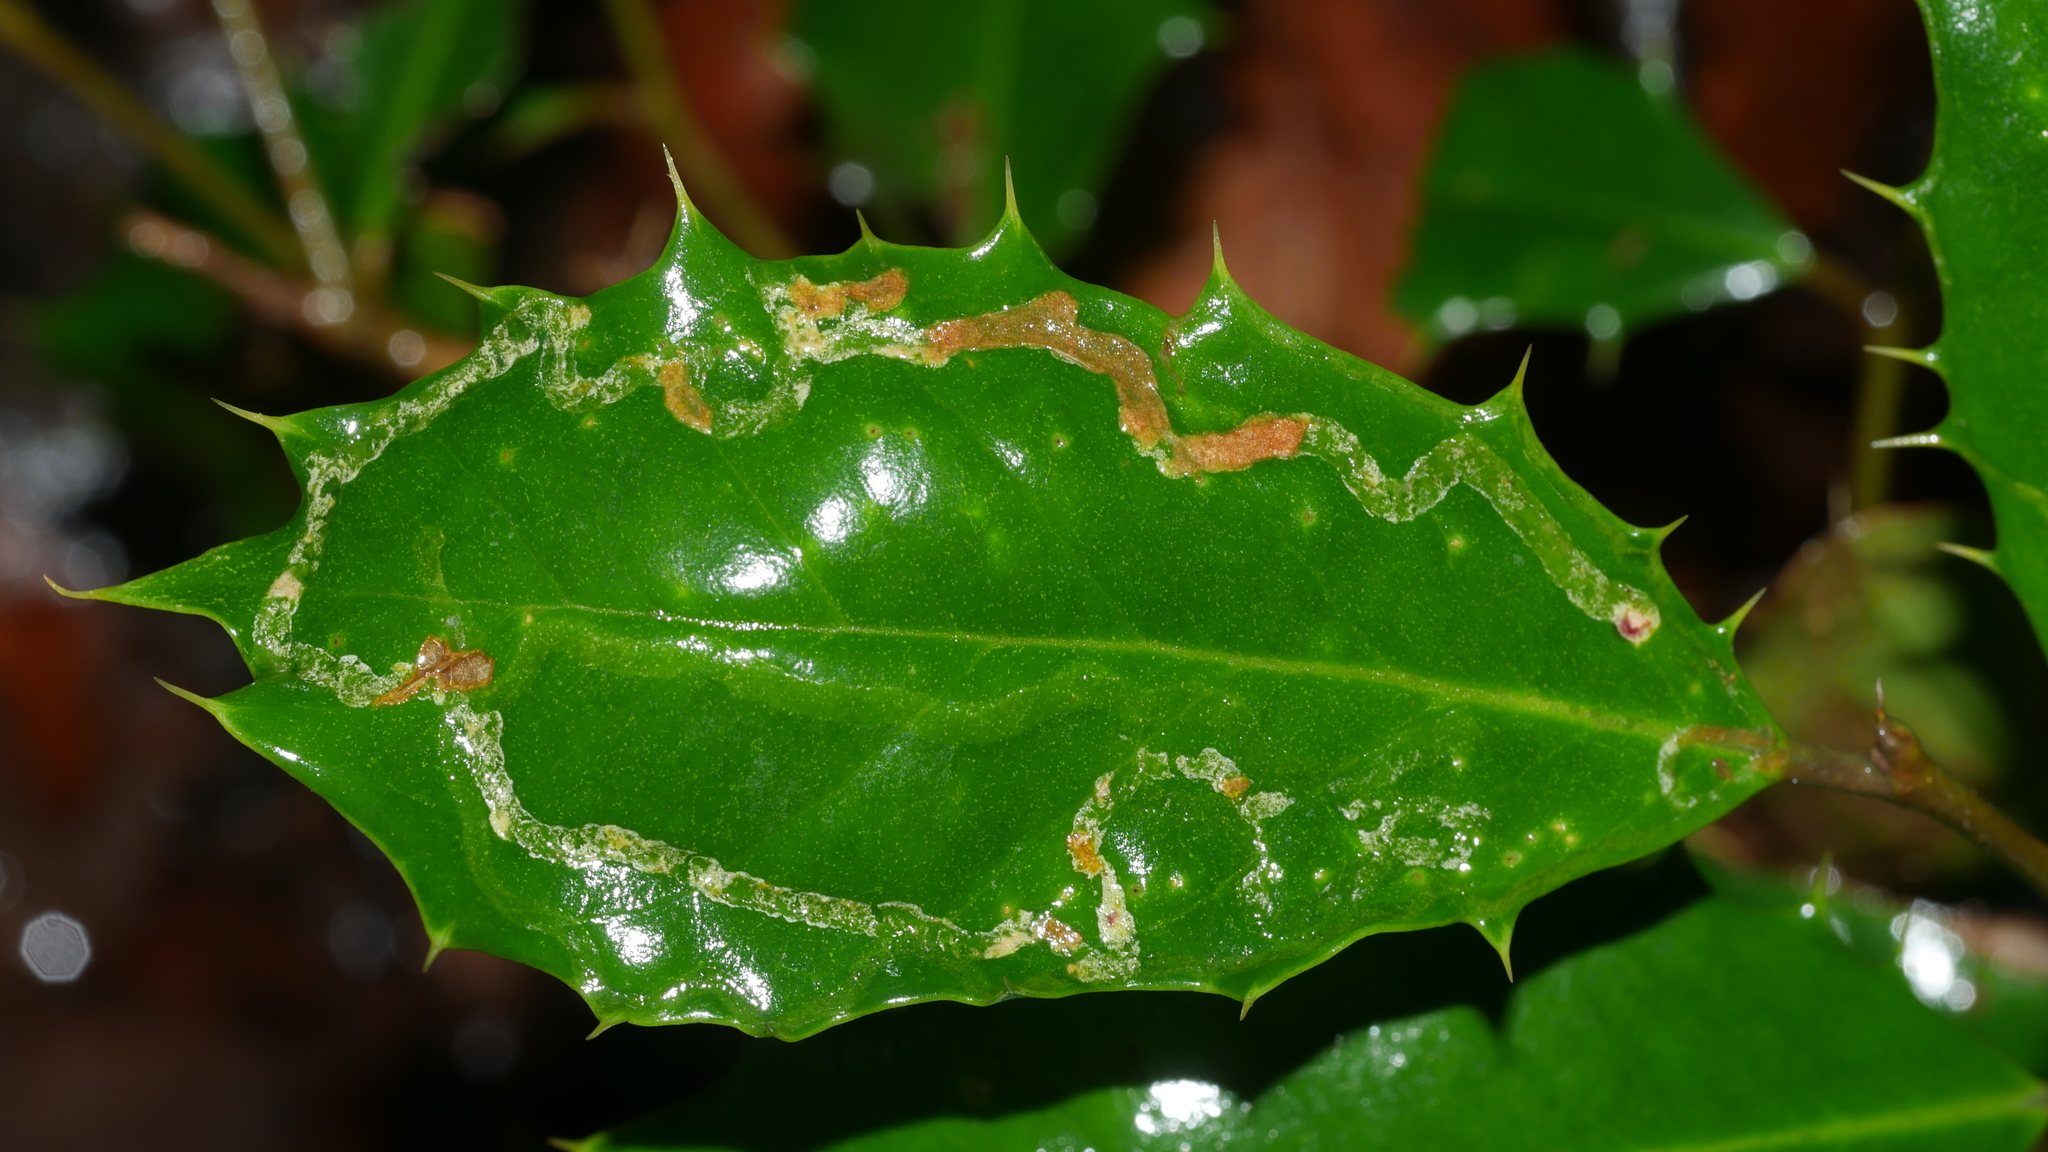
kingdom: Animalia
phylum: Arthropoda
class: Insecta
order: Diptera
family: Agromyzidae
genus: Phytomyza
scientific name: Phytomyza opacae
